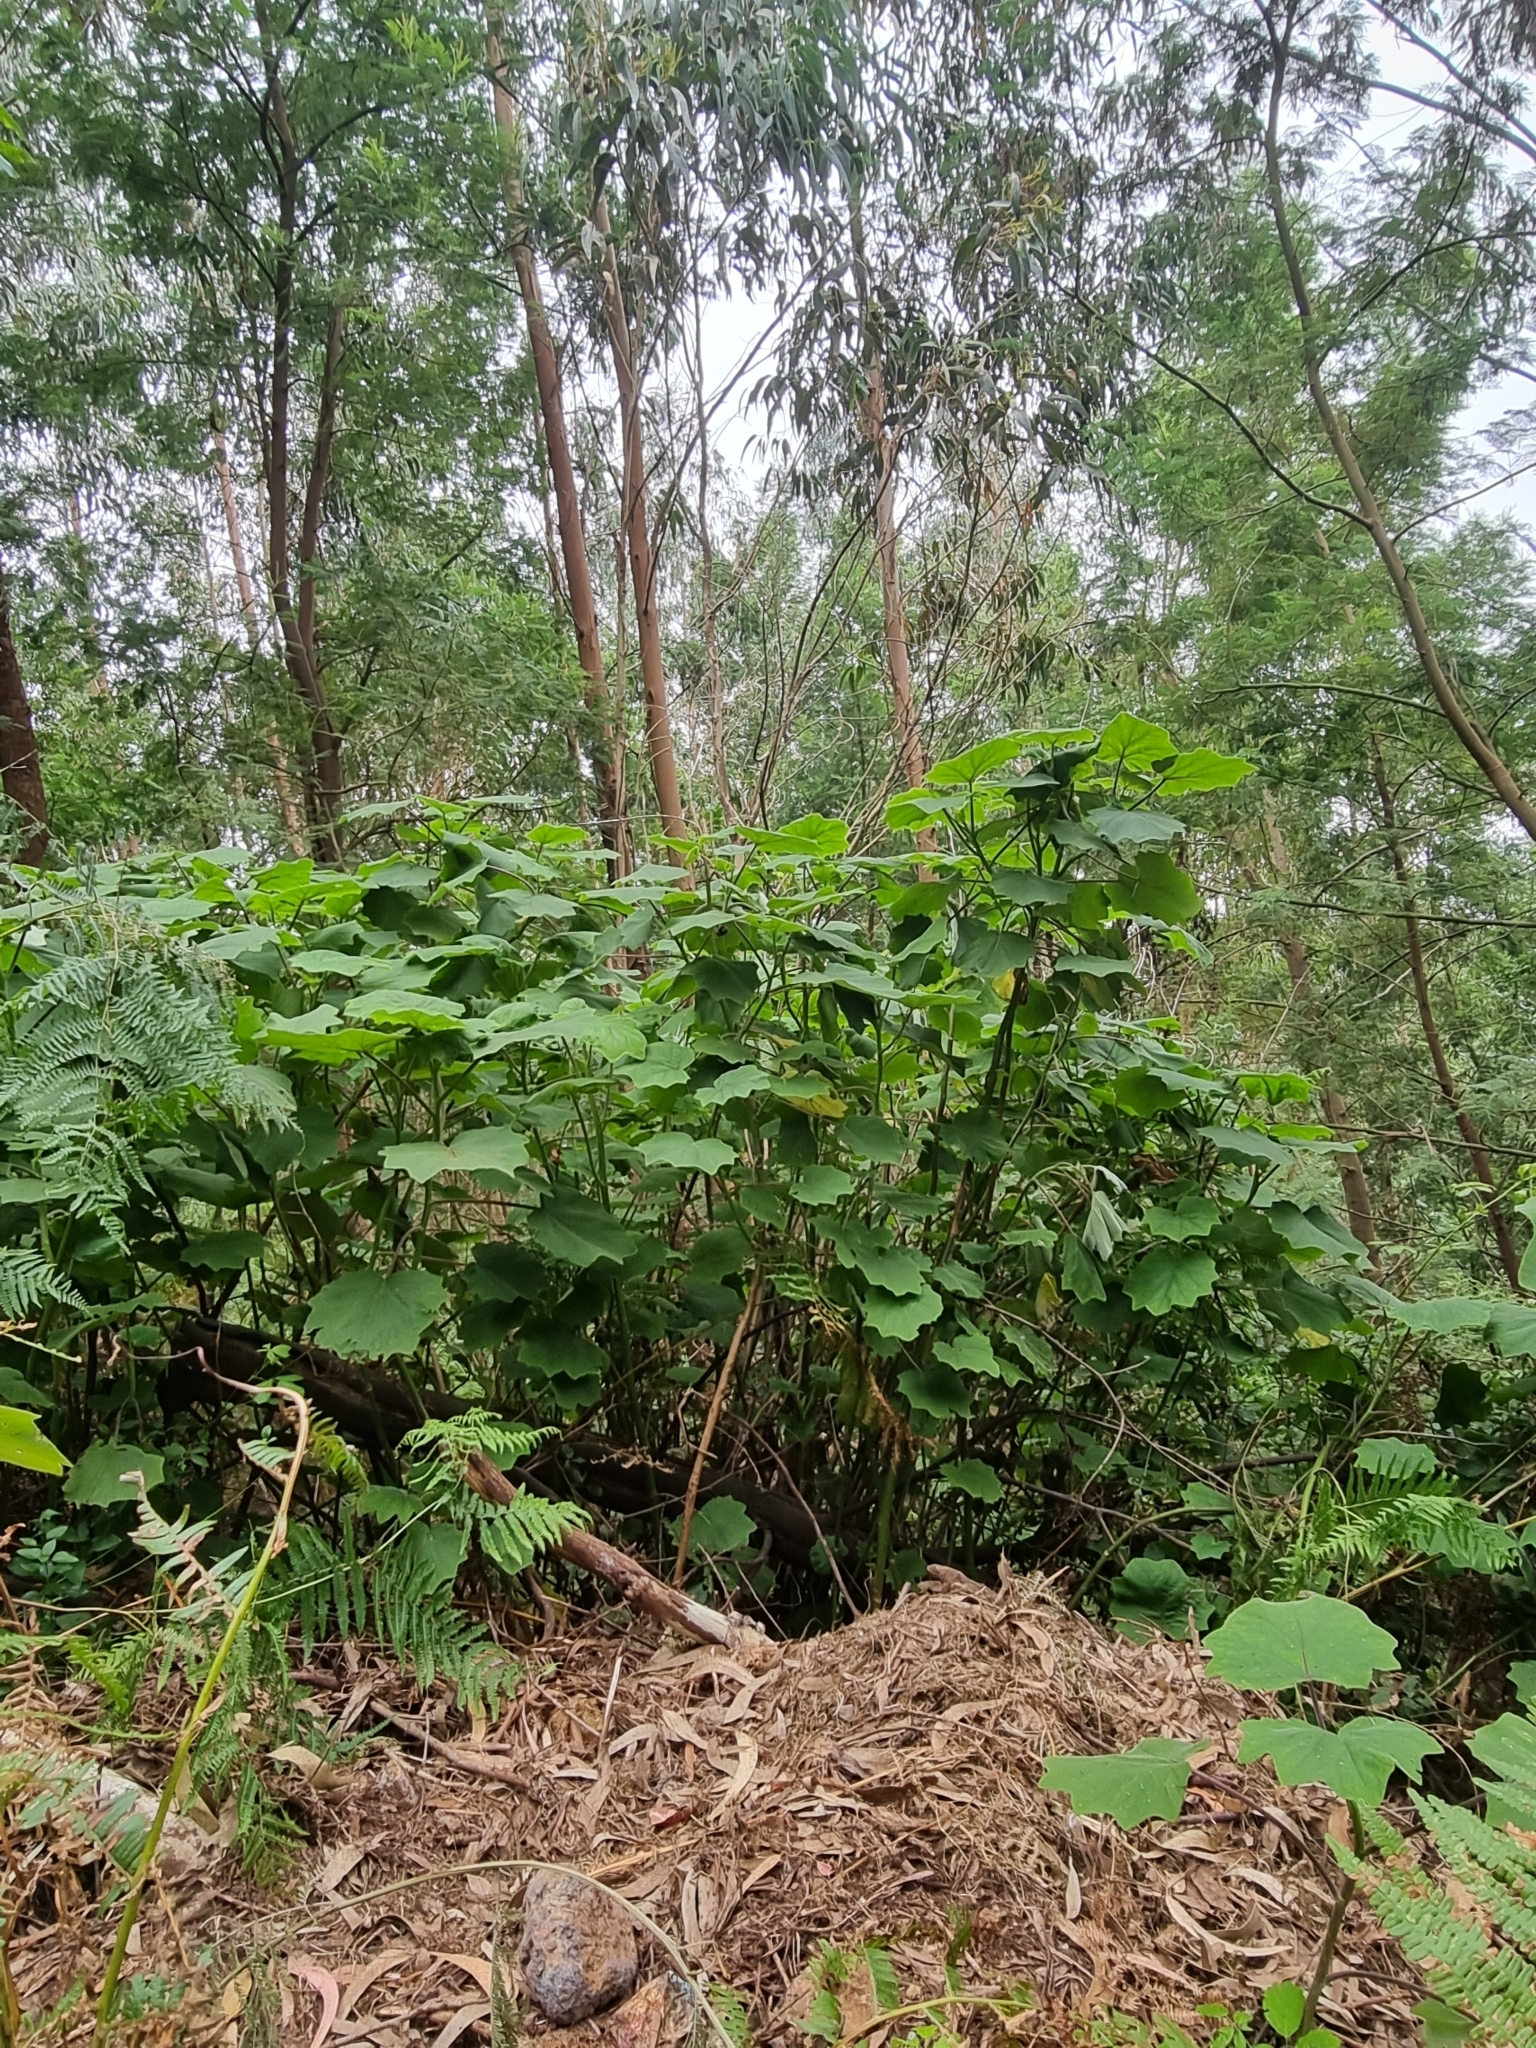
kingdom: Plantae
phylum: Tracheophyta
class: Magnoliopsida
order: Asterales
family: Asteraceae
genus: Roldana
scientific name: Roldana petasitis
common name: California-geranium
